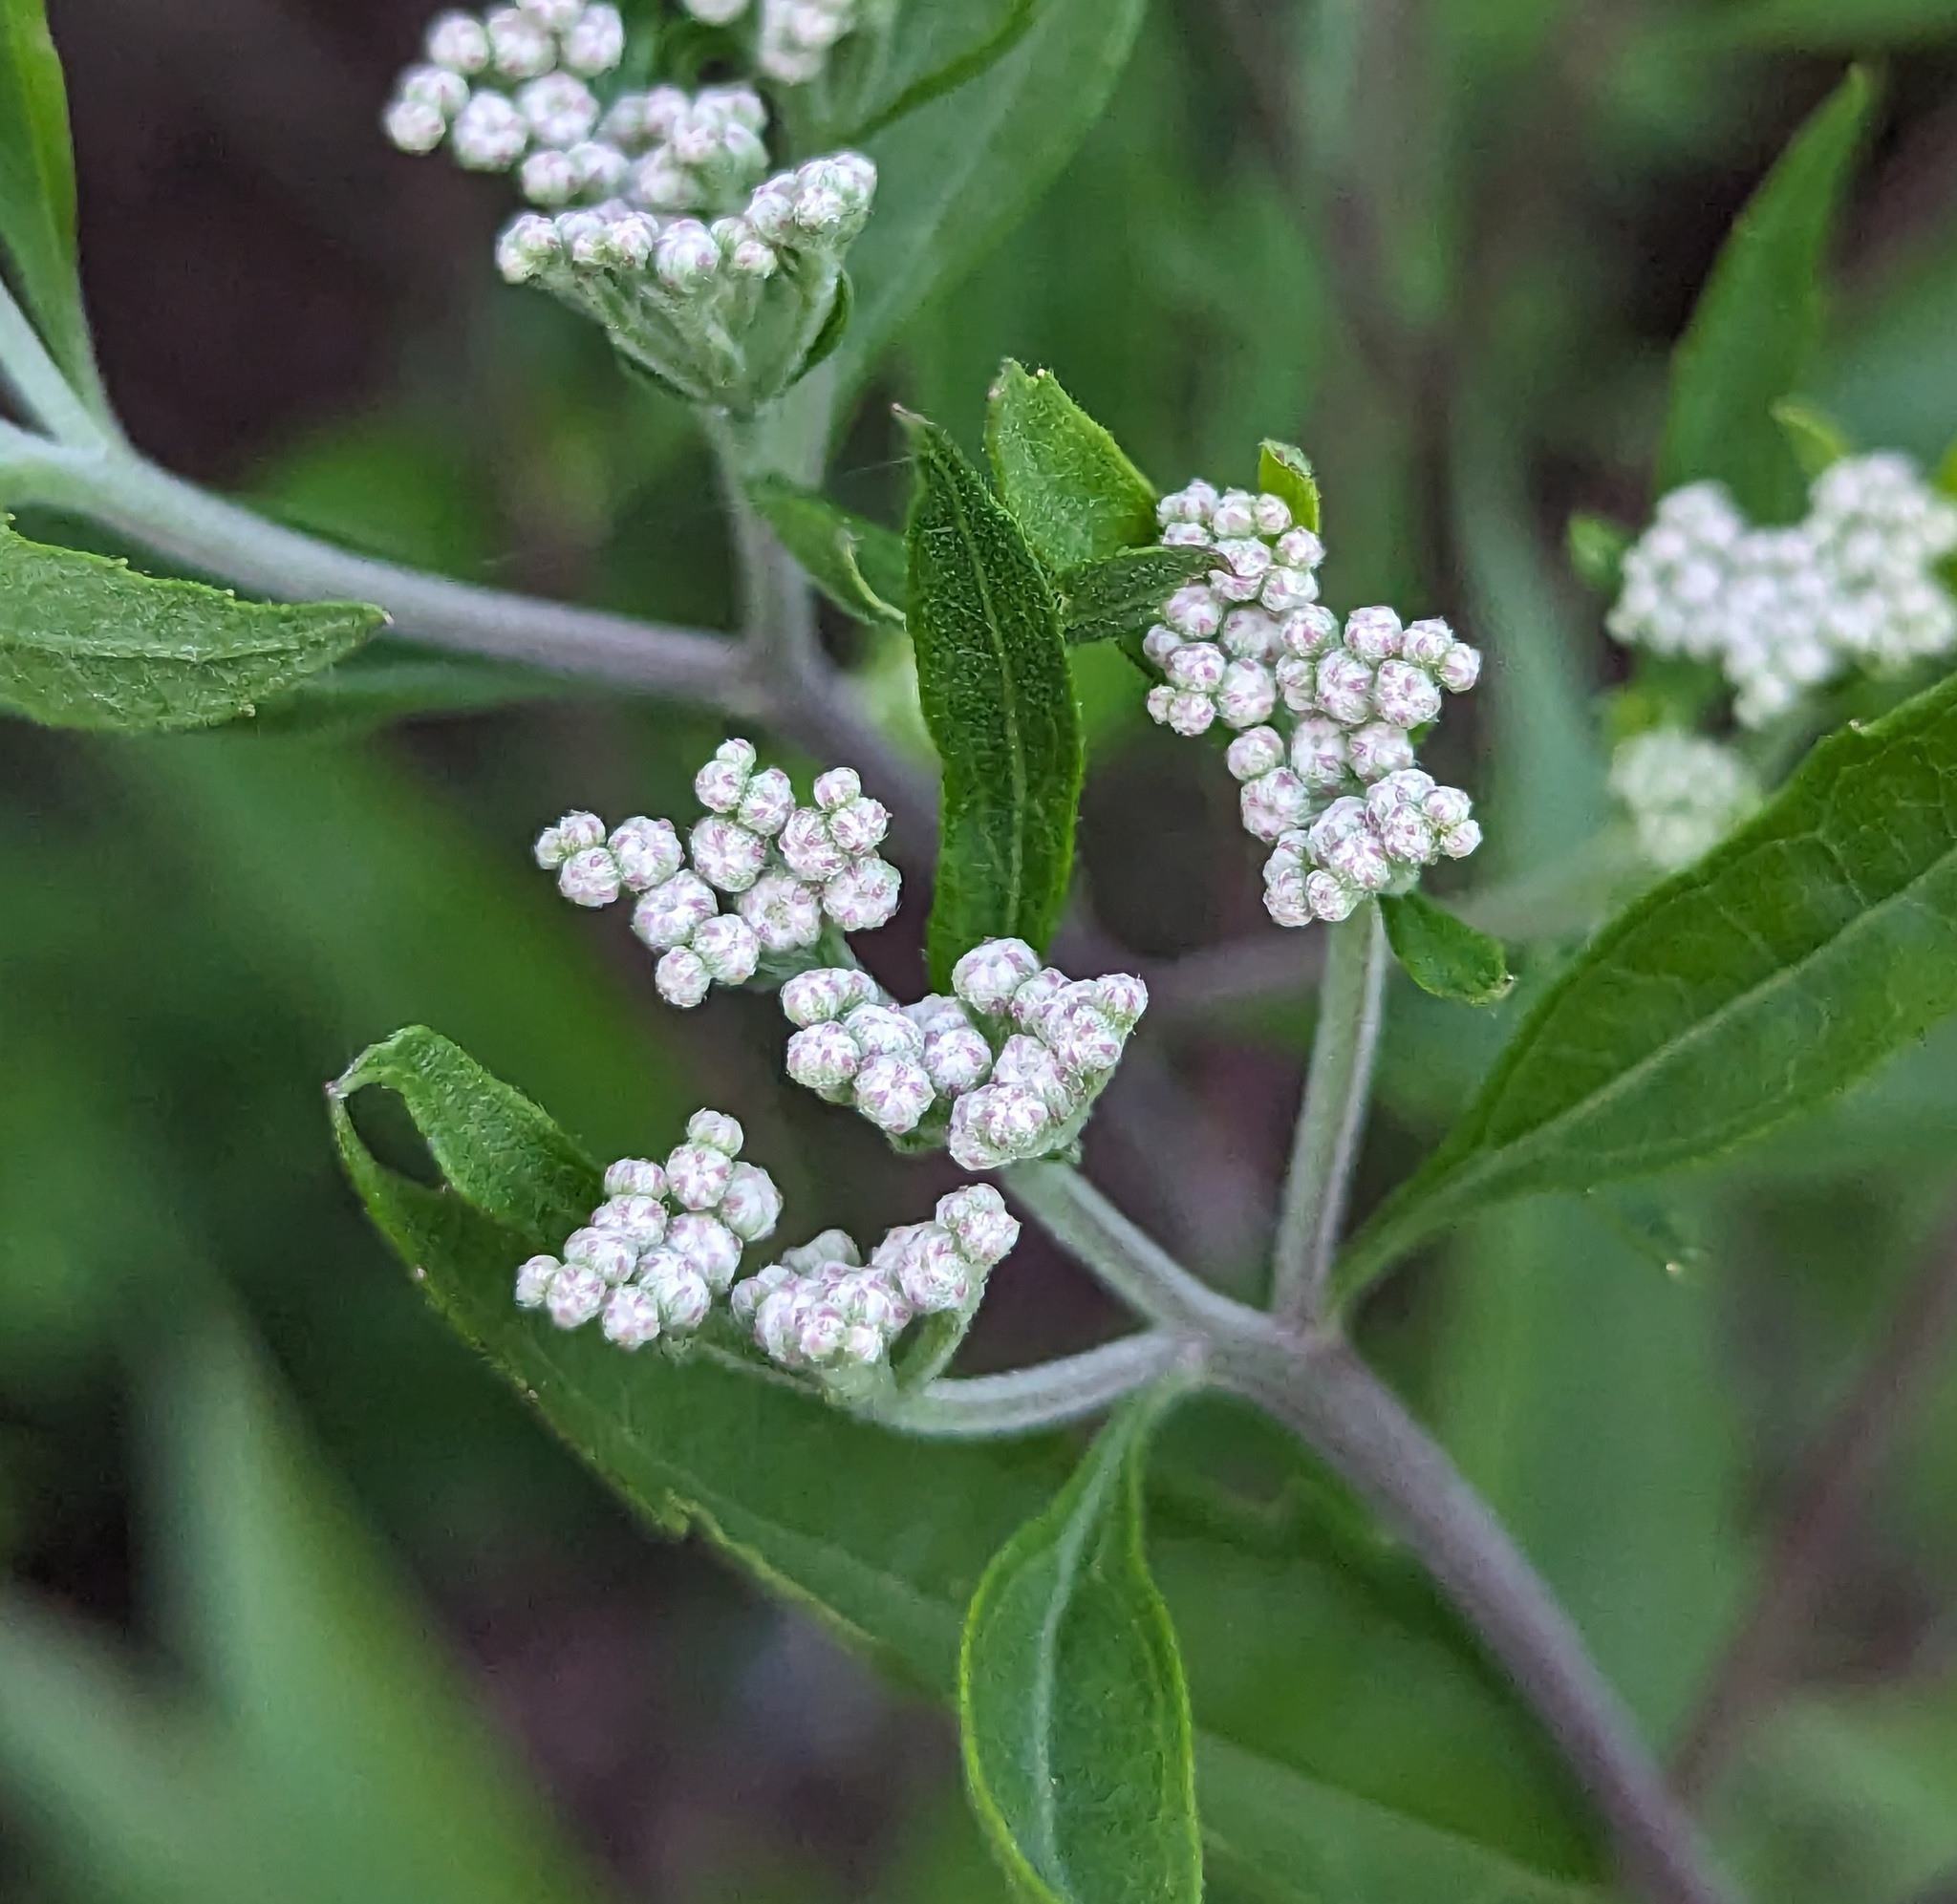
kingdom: Plantae
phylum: Tracheophyta
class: Magnoliopsida
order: Asterales
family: Asteraceae
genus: Eupatorium
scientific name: Eupatorium serotinum
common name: Late boneset
